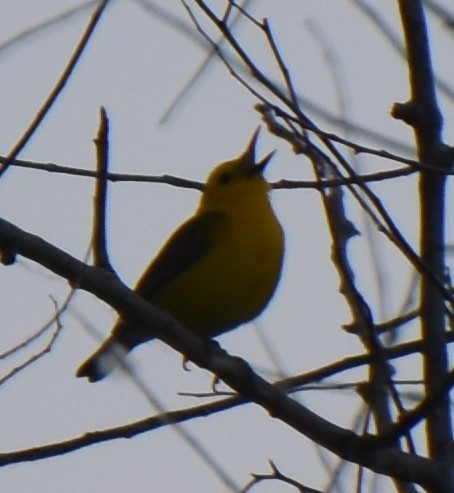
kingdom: Animalia
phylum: Chordata
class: Aves
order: Passeriformes
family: Parulidae
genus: Protonotaria
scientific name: Protonotaria citrea
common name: Prothonotary warbler
